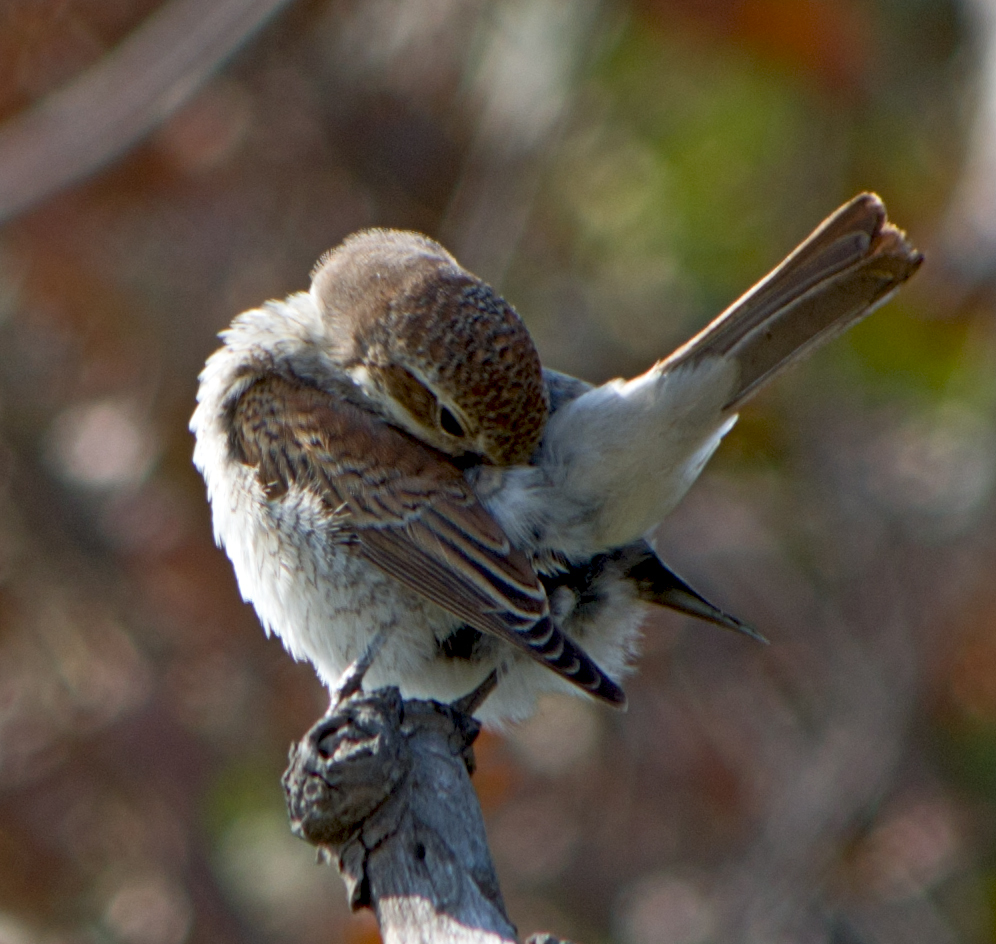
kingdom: Animalia
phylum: Chordata
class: Aves
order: Passeriformes
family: Laniidae
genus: Lanius
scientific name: Lanius collurio
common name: Red-backed shrike
